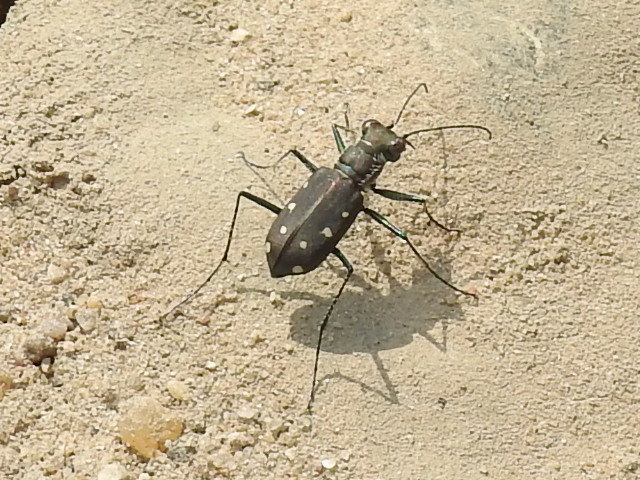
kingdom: Animalia
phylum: Arthropoda
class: Insecta
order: Coleoptera
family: Carabidae
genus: Cicindela
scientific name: Cicindela ocellata
